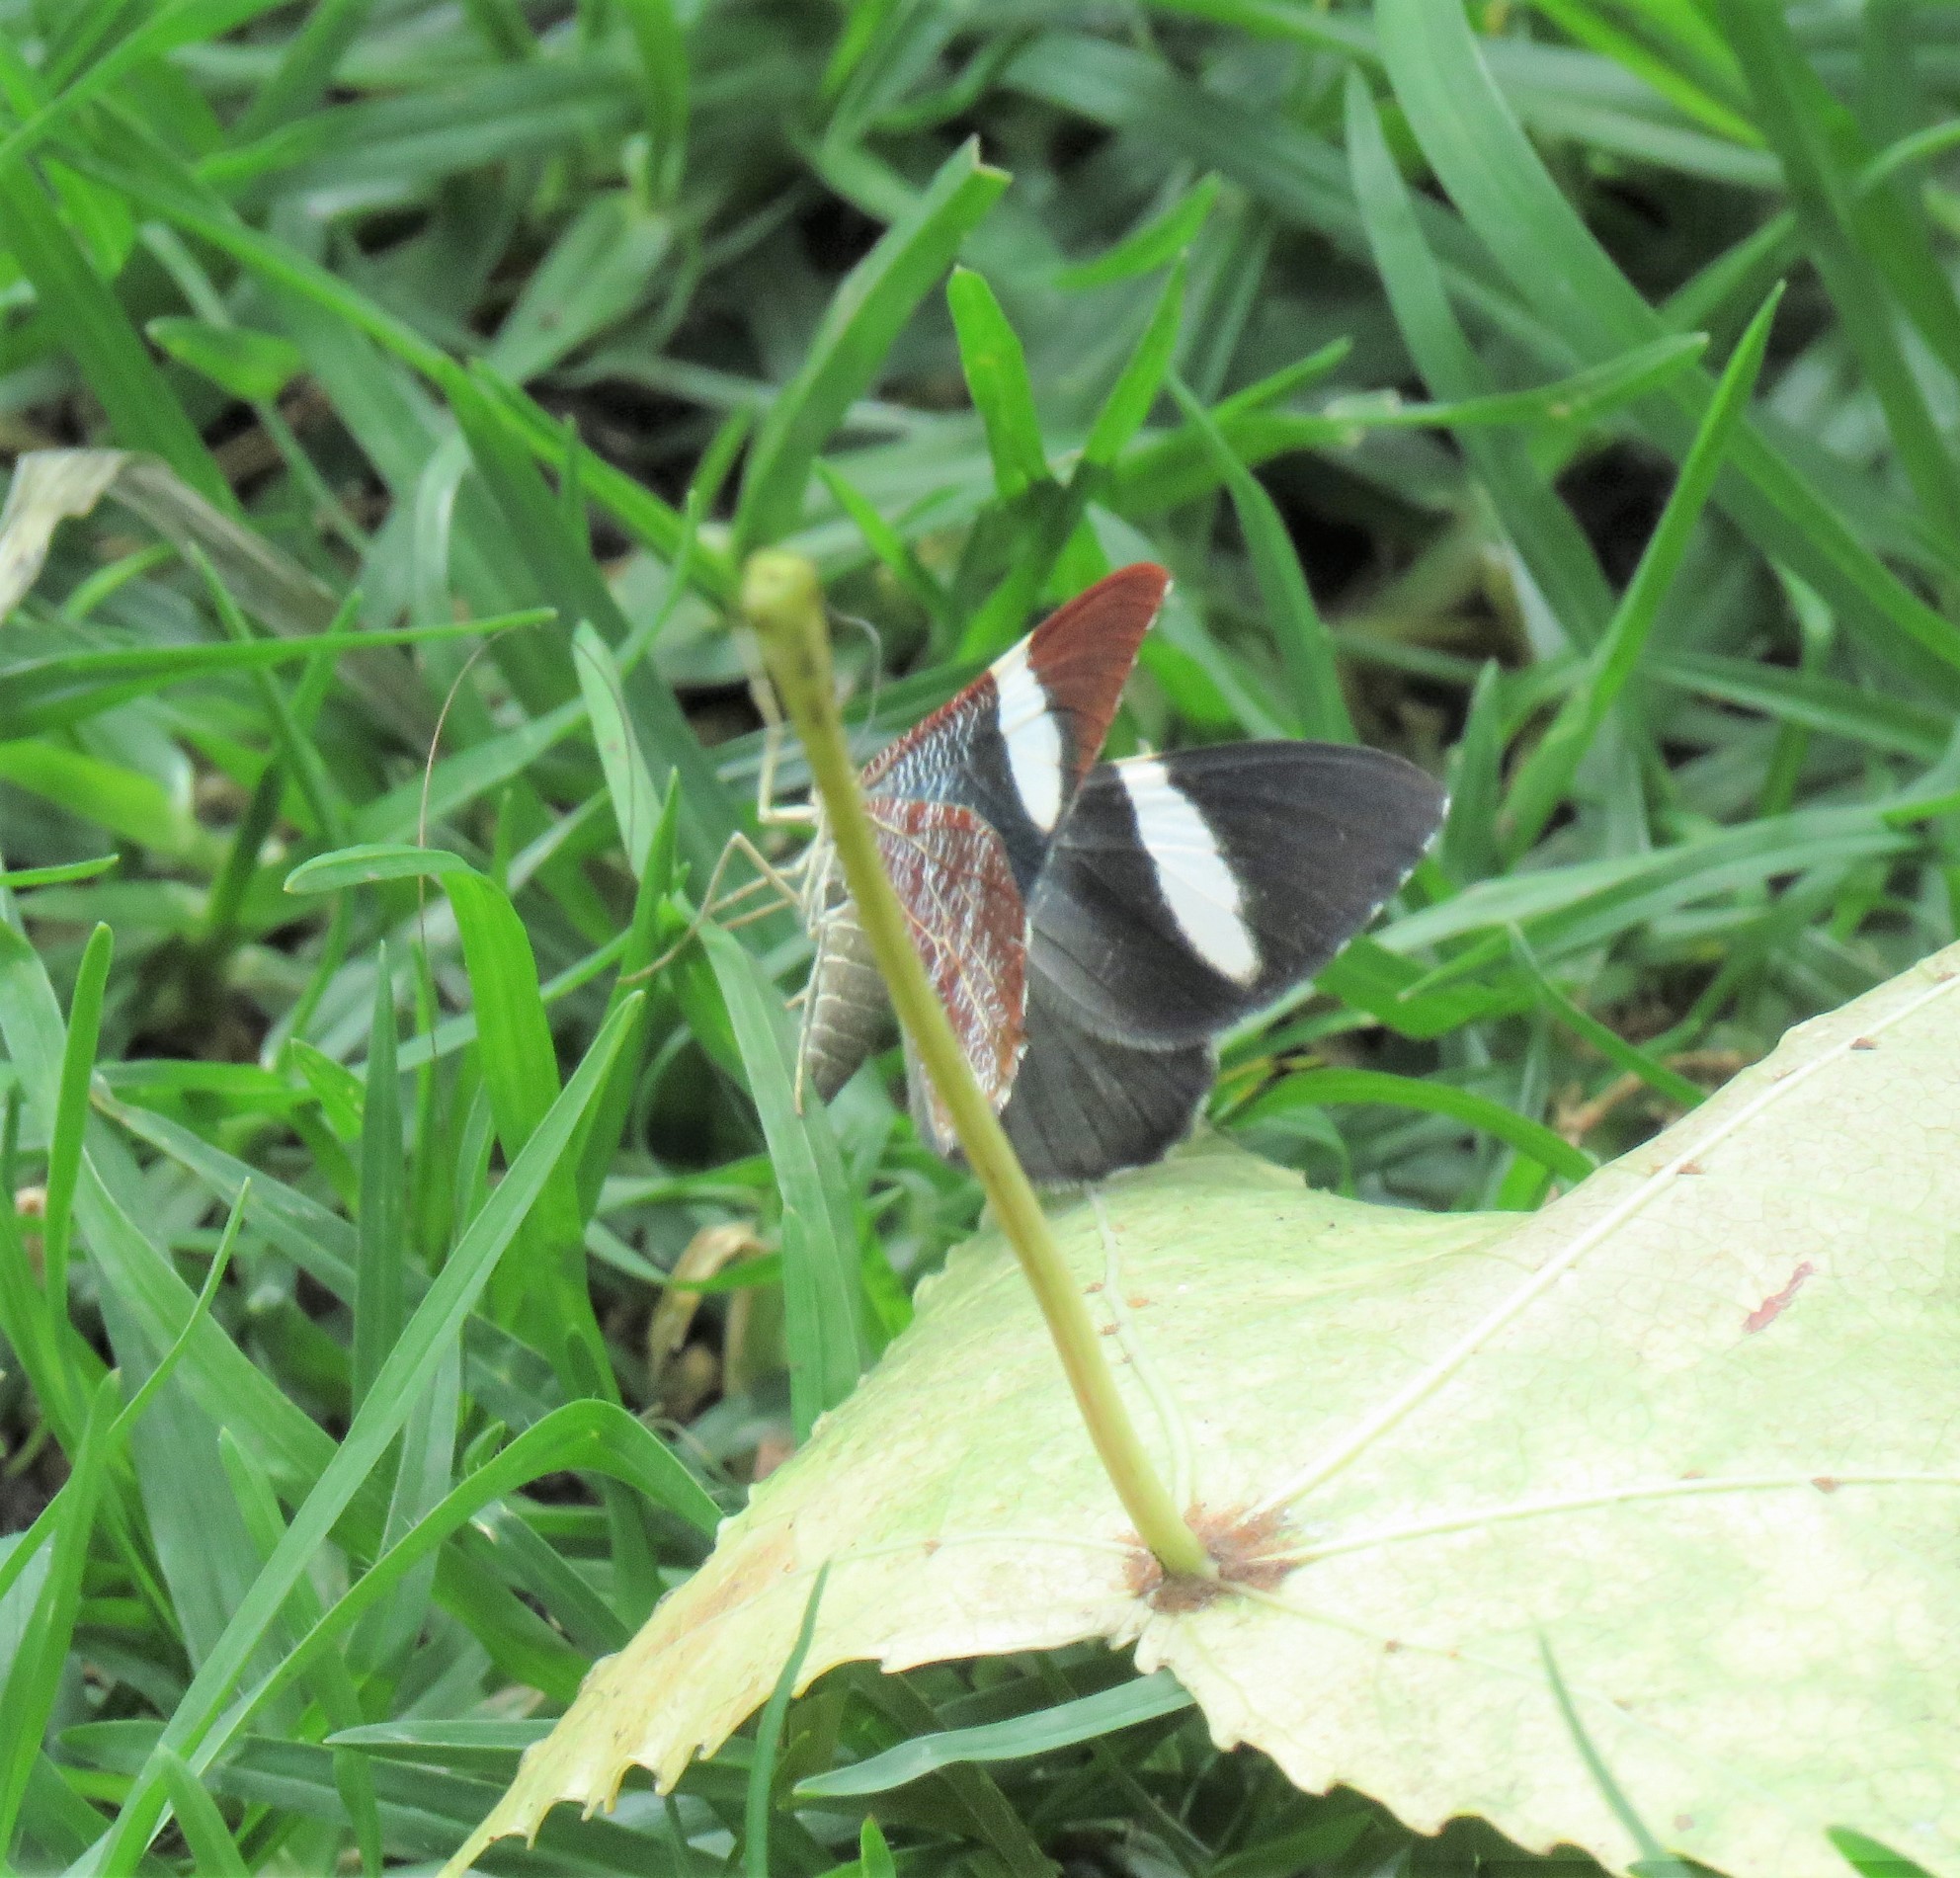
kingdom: Animalia
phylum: Arthropoda
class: Insecta
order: Lepidoptera
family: Geometridae
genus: Hagnagora
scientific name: Hagnagora anicata
